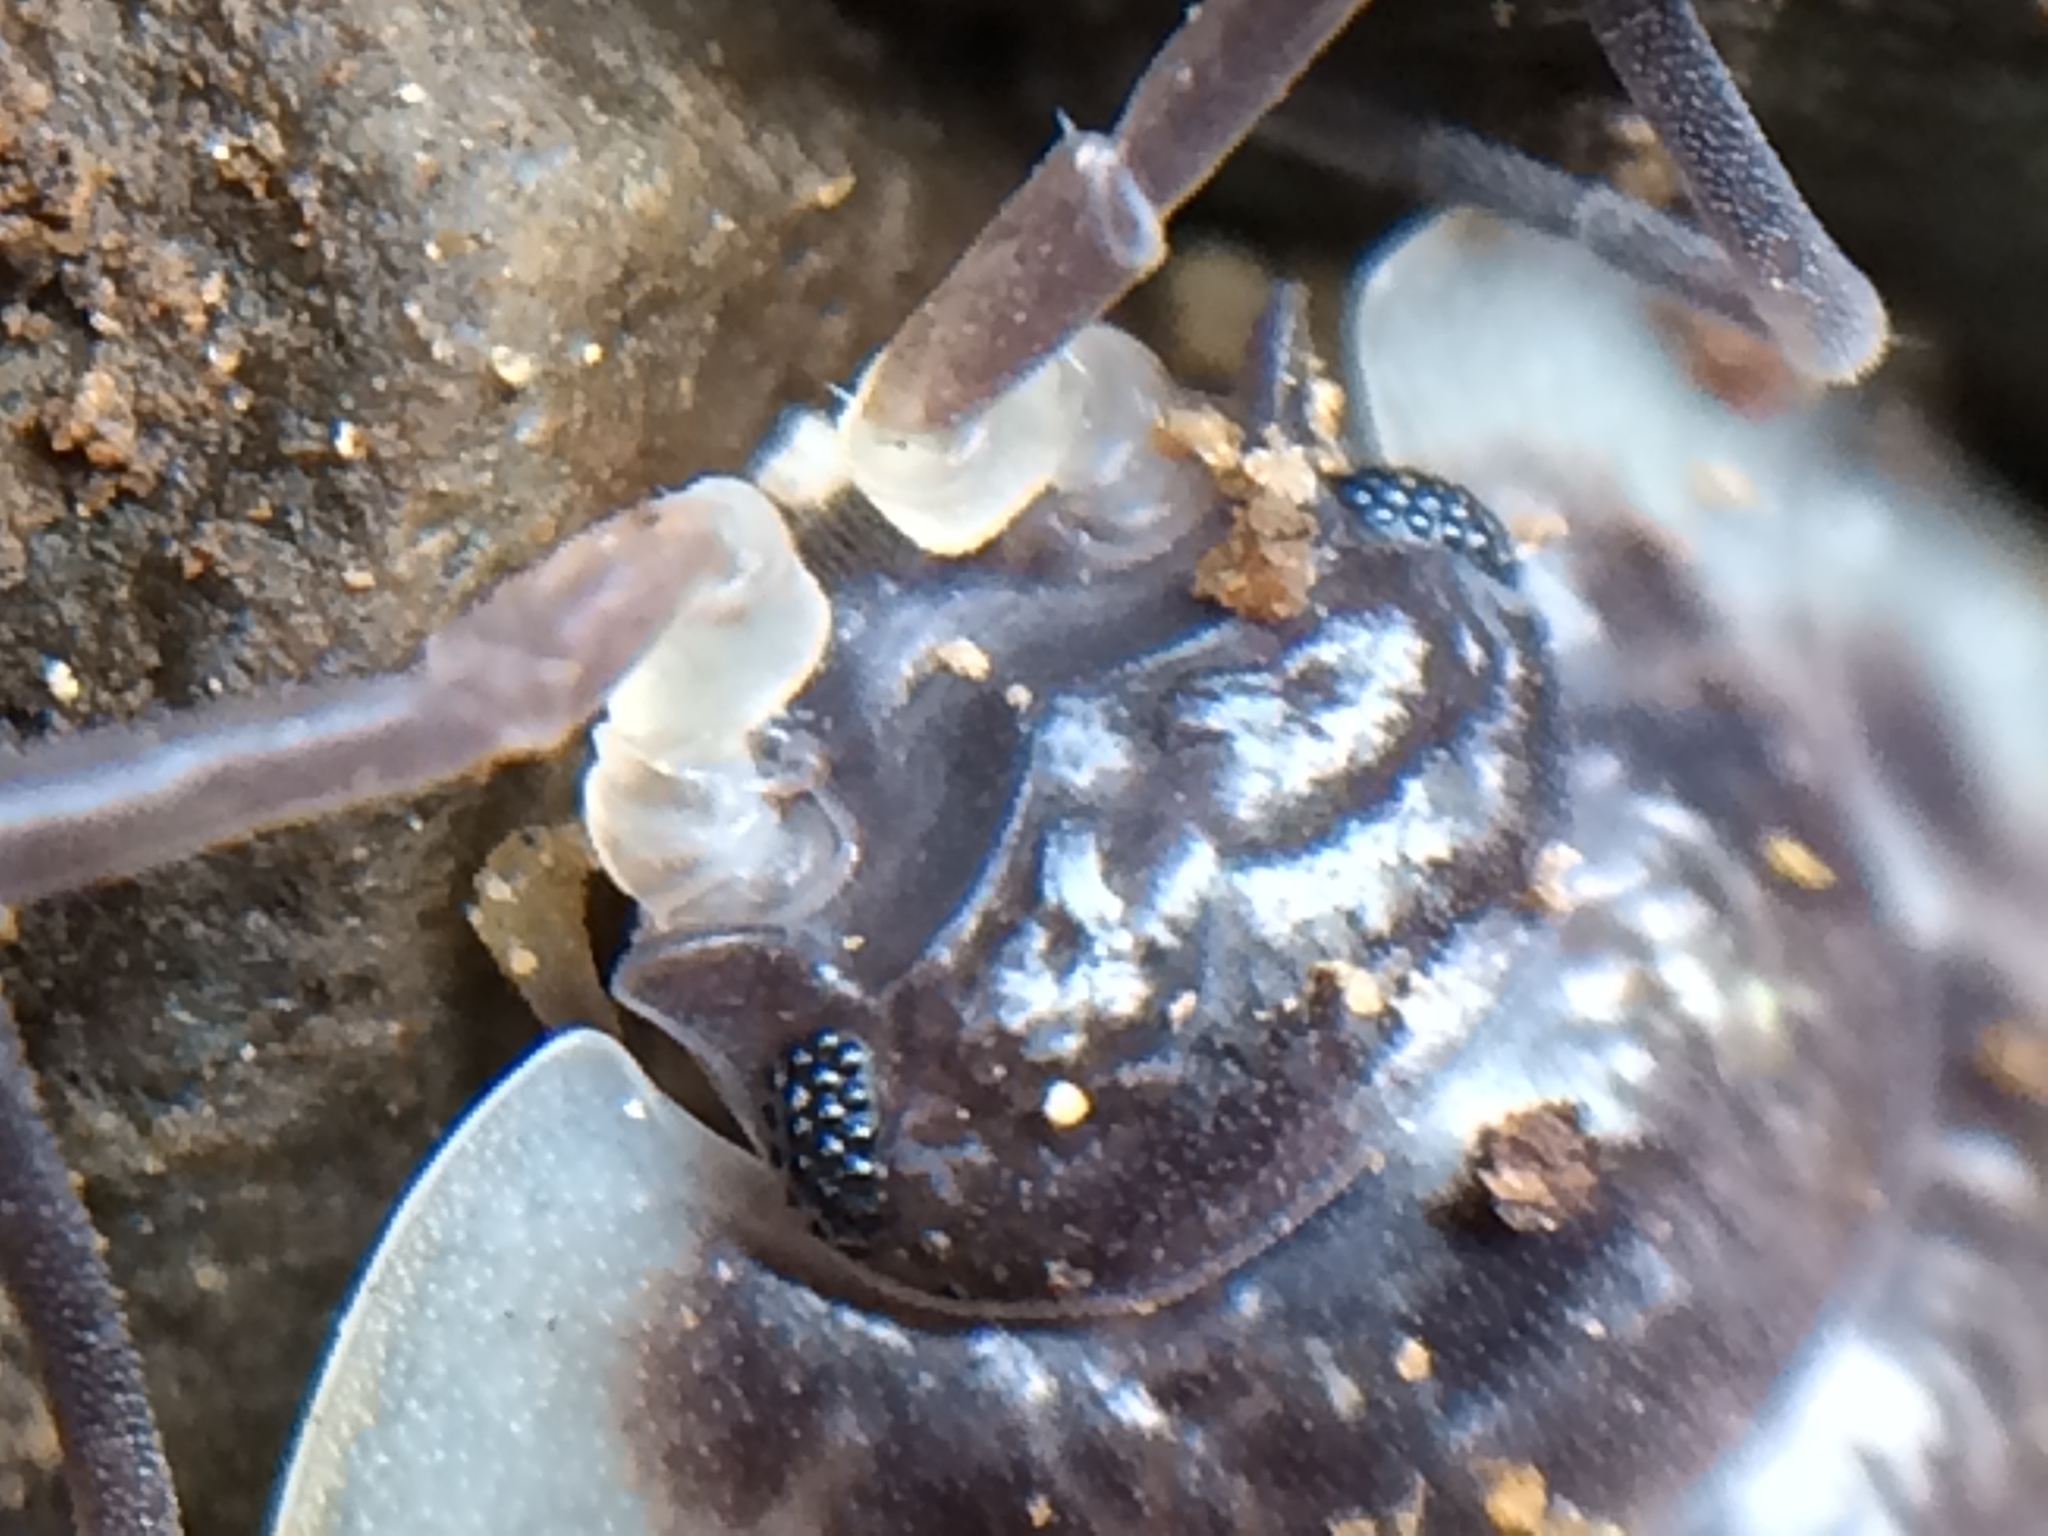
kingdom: Animalia
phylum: Arthropoda
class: Malacostraca
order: Isopoda
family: Oniscidae
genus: Oniscus
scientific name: Oniscus asellus
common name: Common shiny woodlouse
